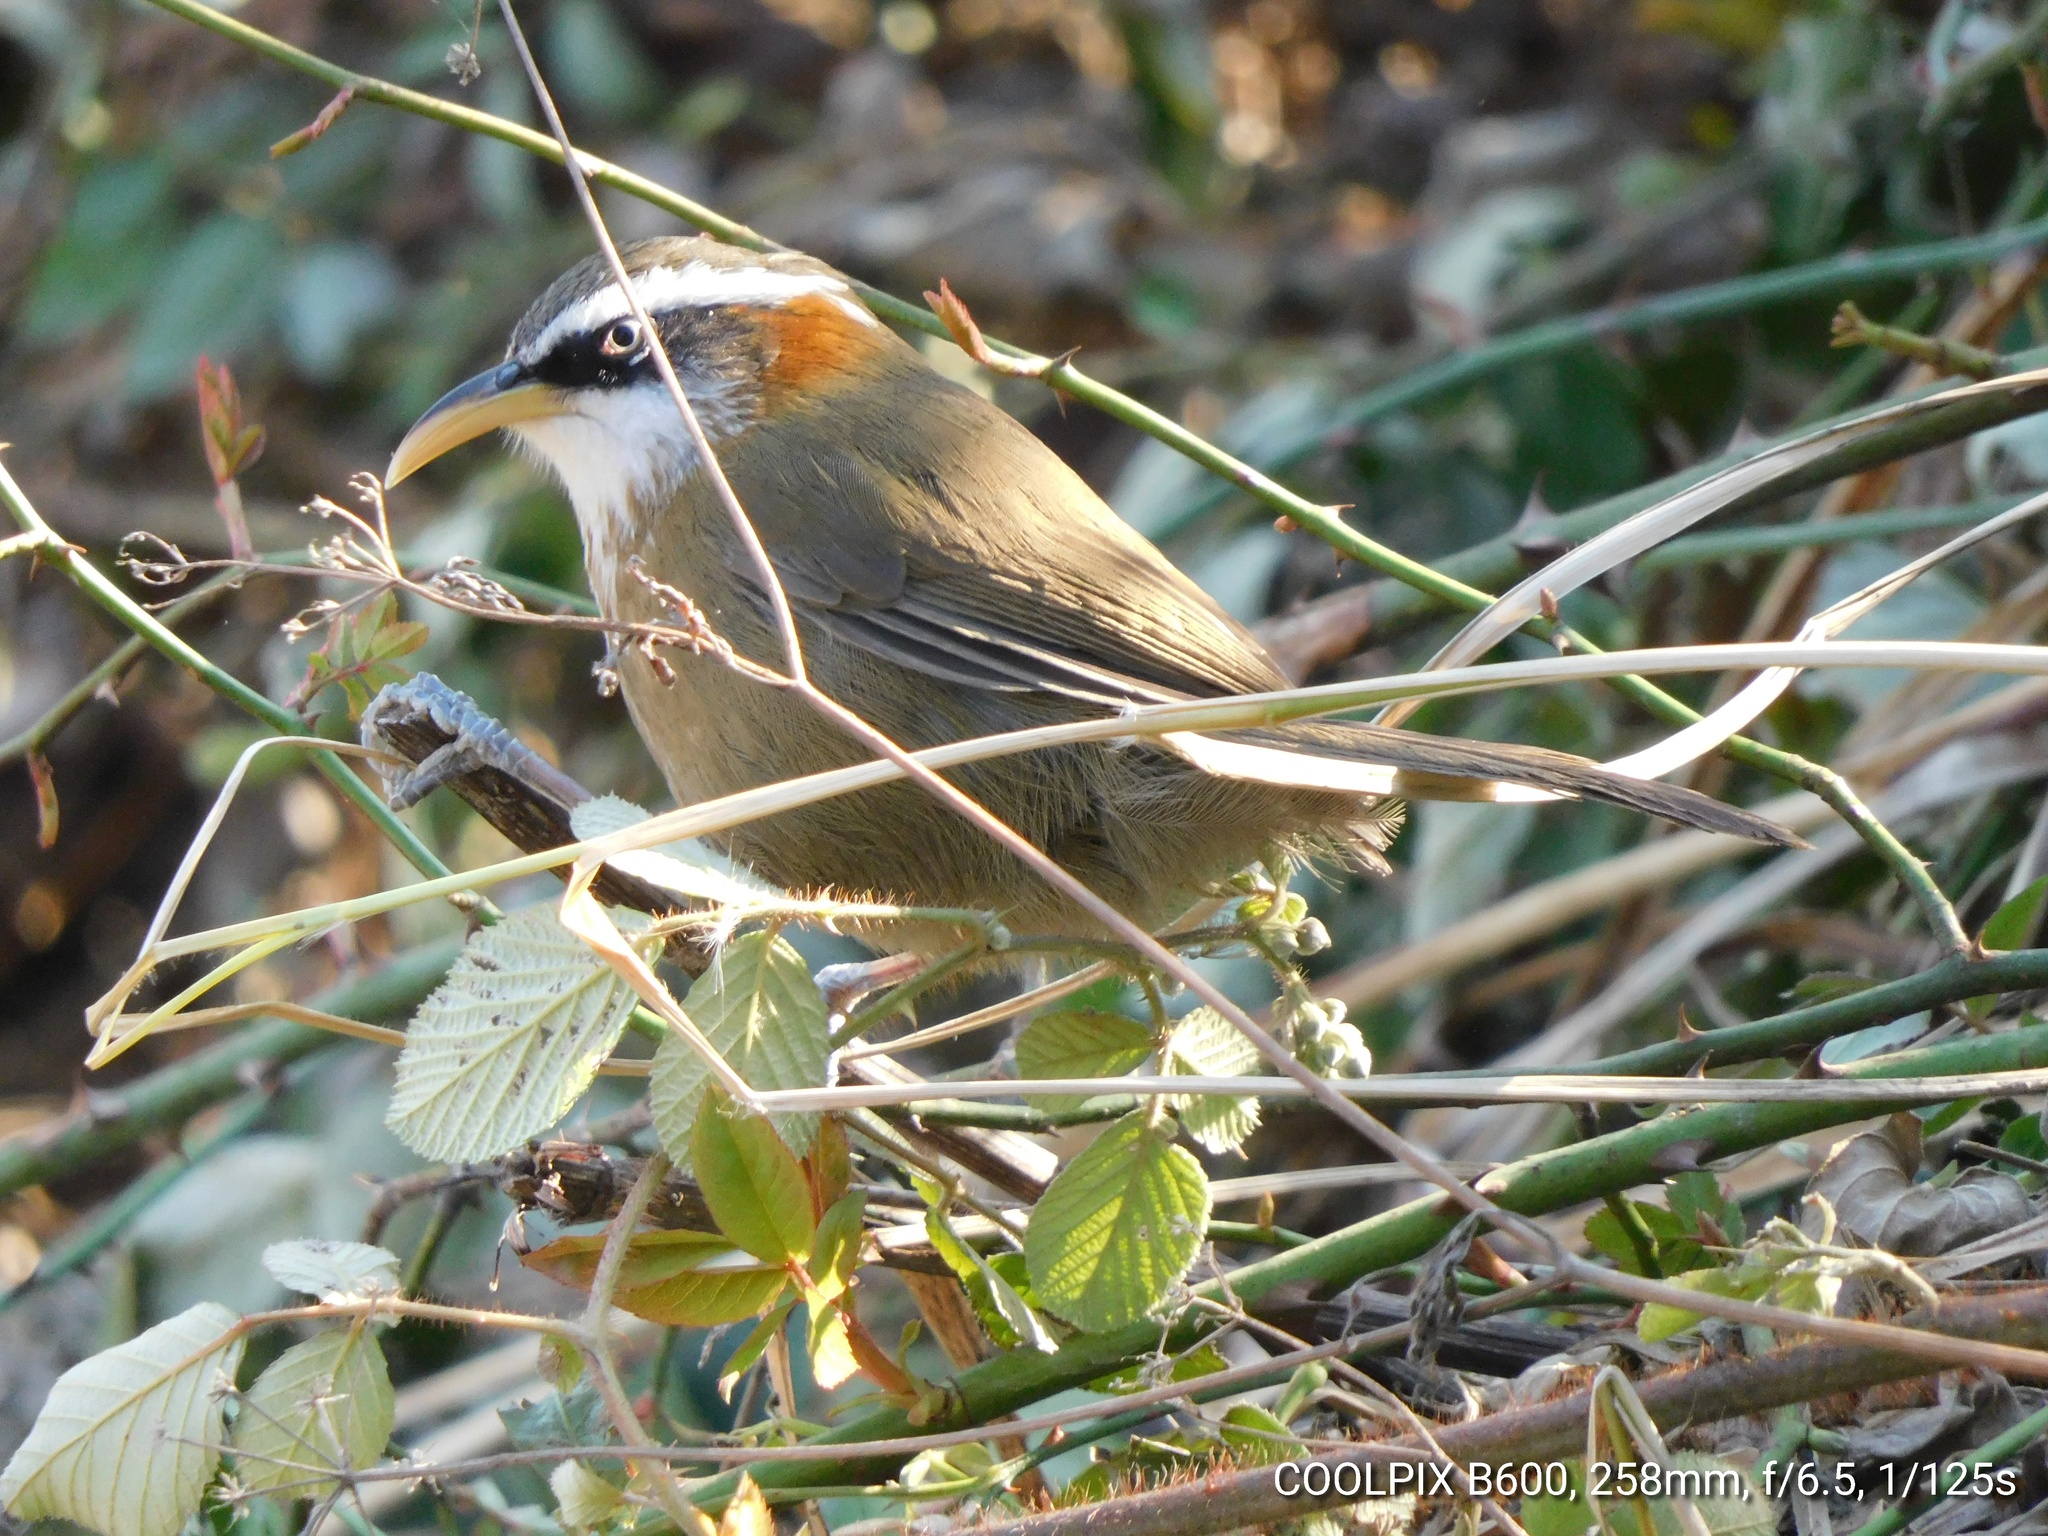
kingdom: Animalia
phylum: Chordata
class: Aves
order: Passeriformes
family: Timaliidae
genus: Pomatorhinus
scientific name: Pomatorhinus ruficollis
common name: Streak-breasted scimitar babbler
